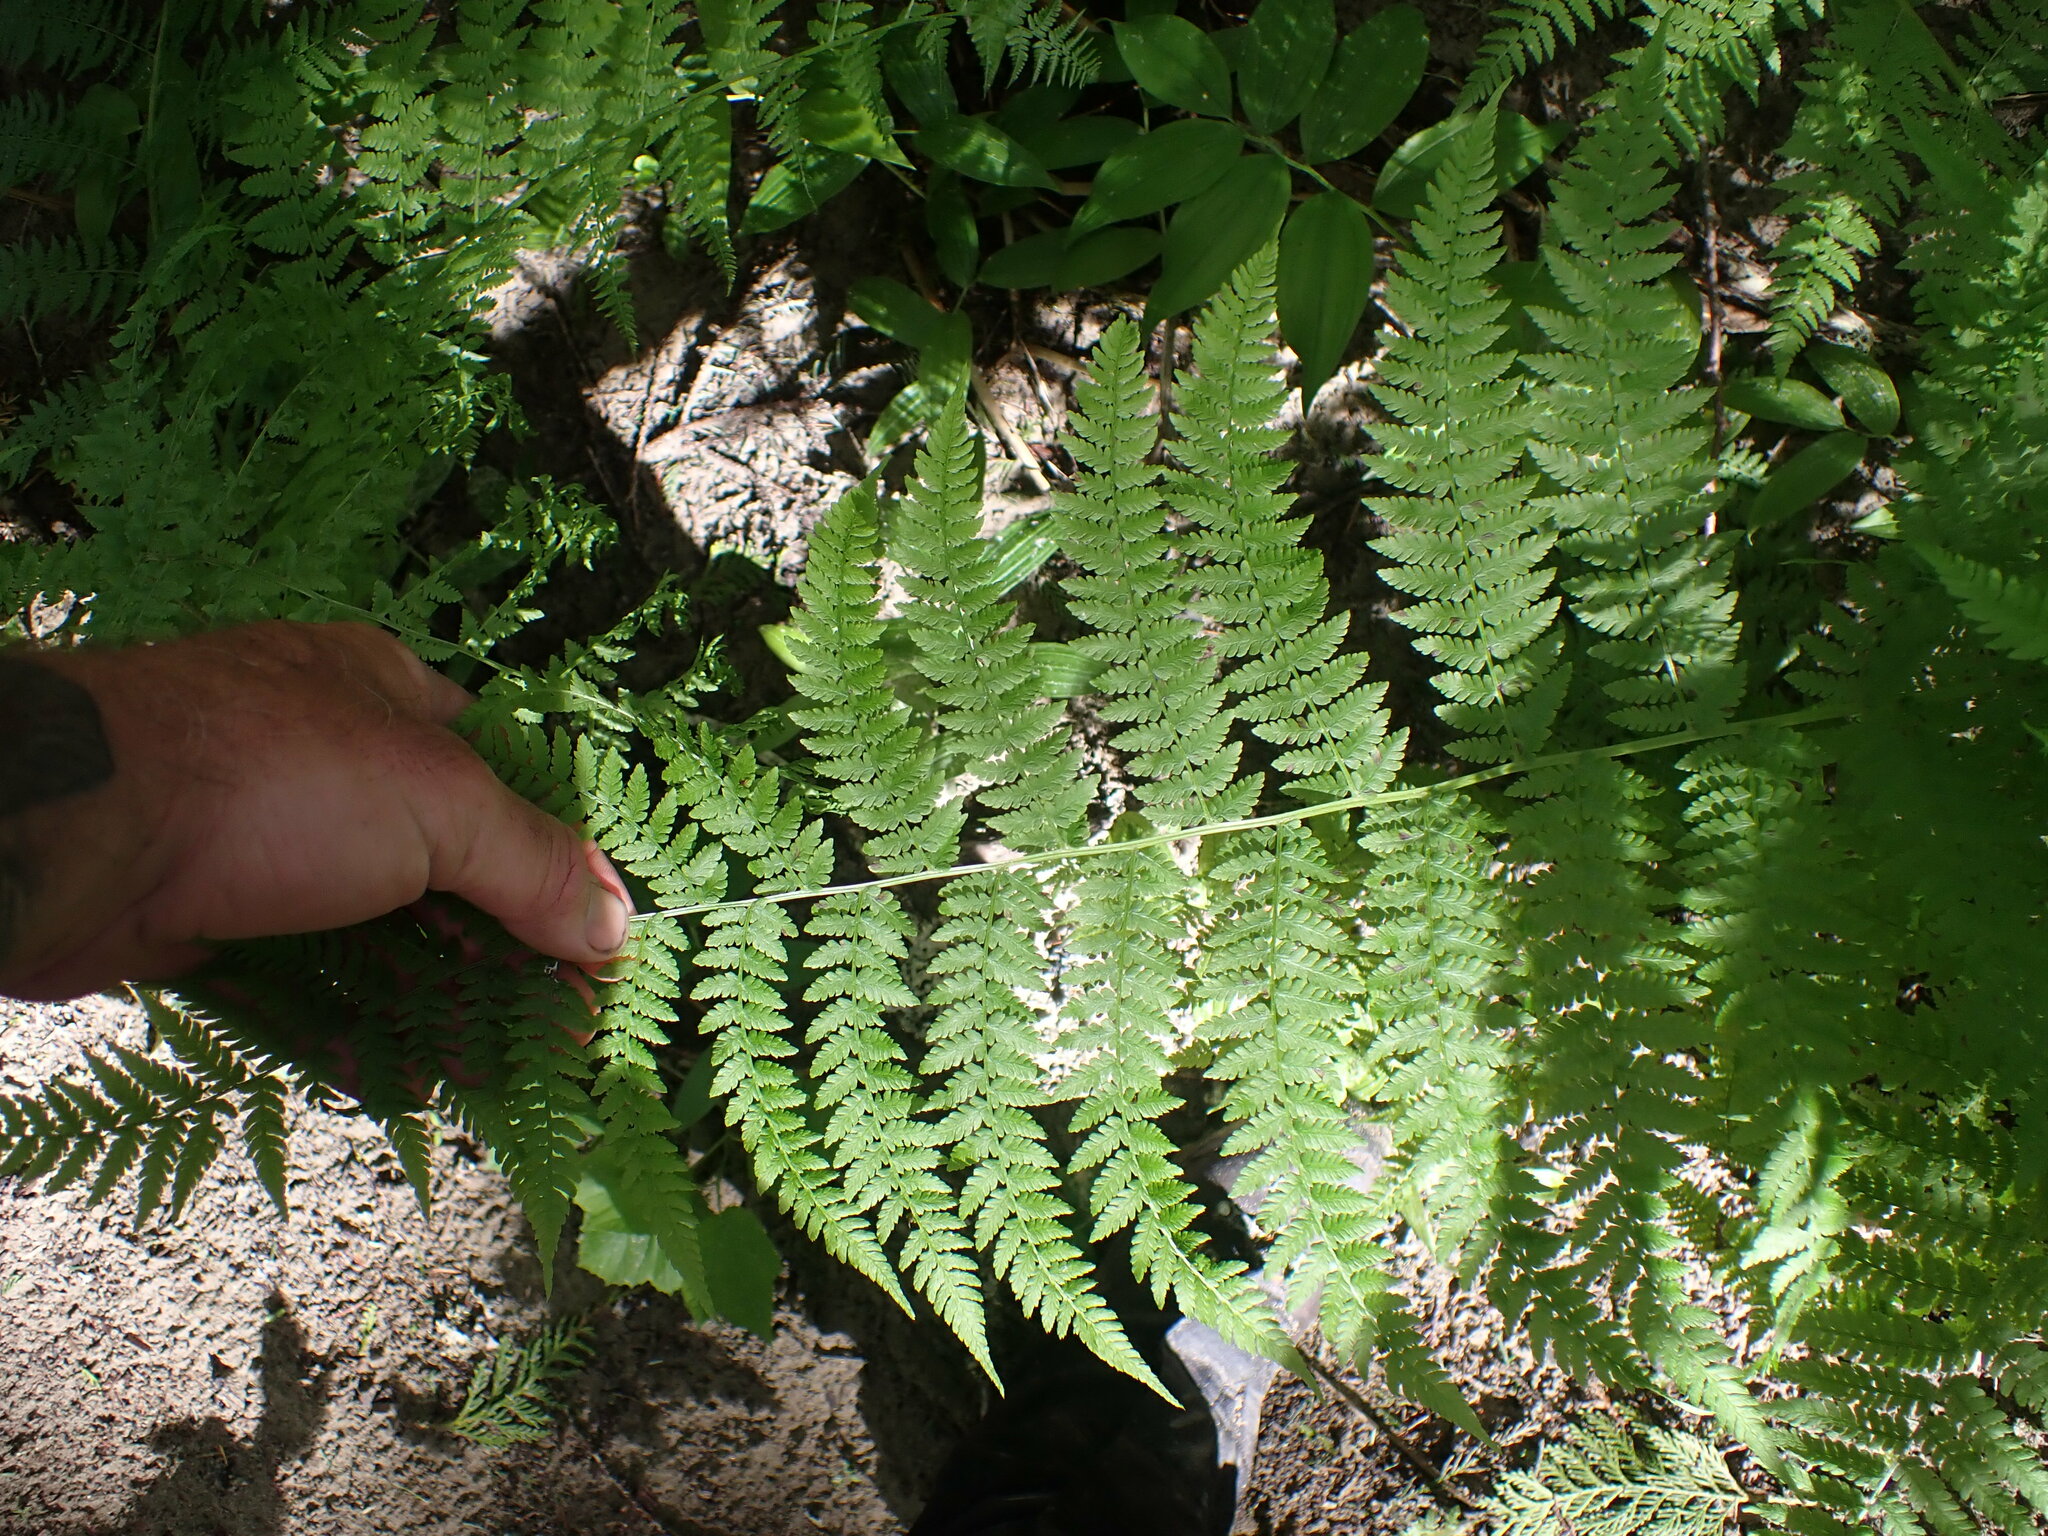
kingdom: Plantae
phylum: Tracheophyta
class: Polypodiopsida
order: Polypodiales
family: Athyriaceae
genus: Athyrium
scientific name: Athyrium filix-femina
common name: Lady fern
